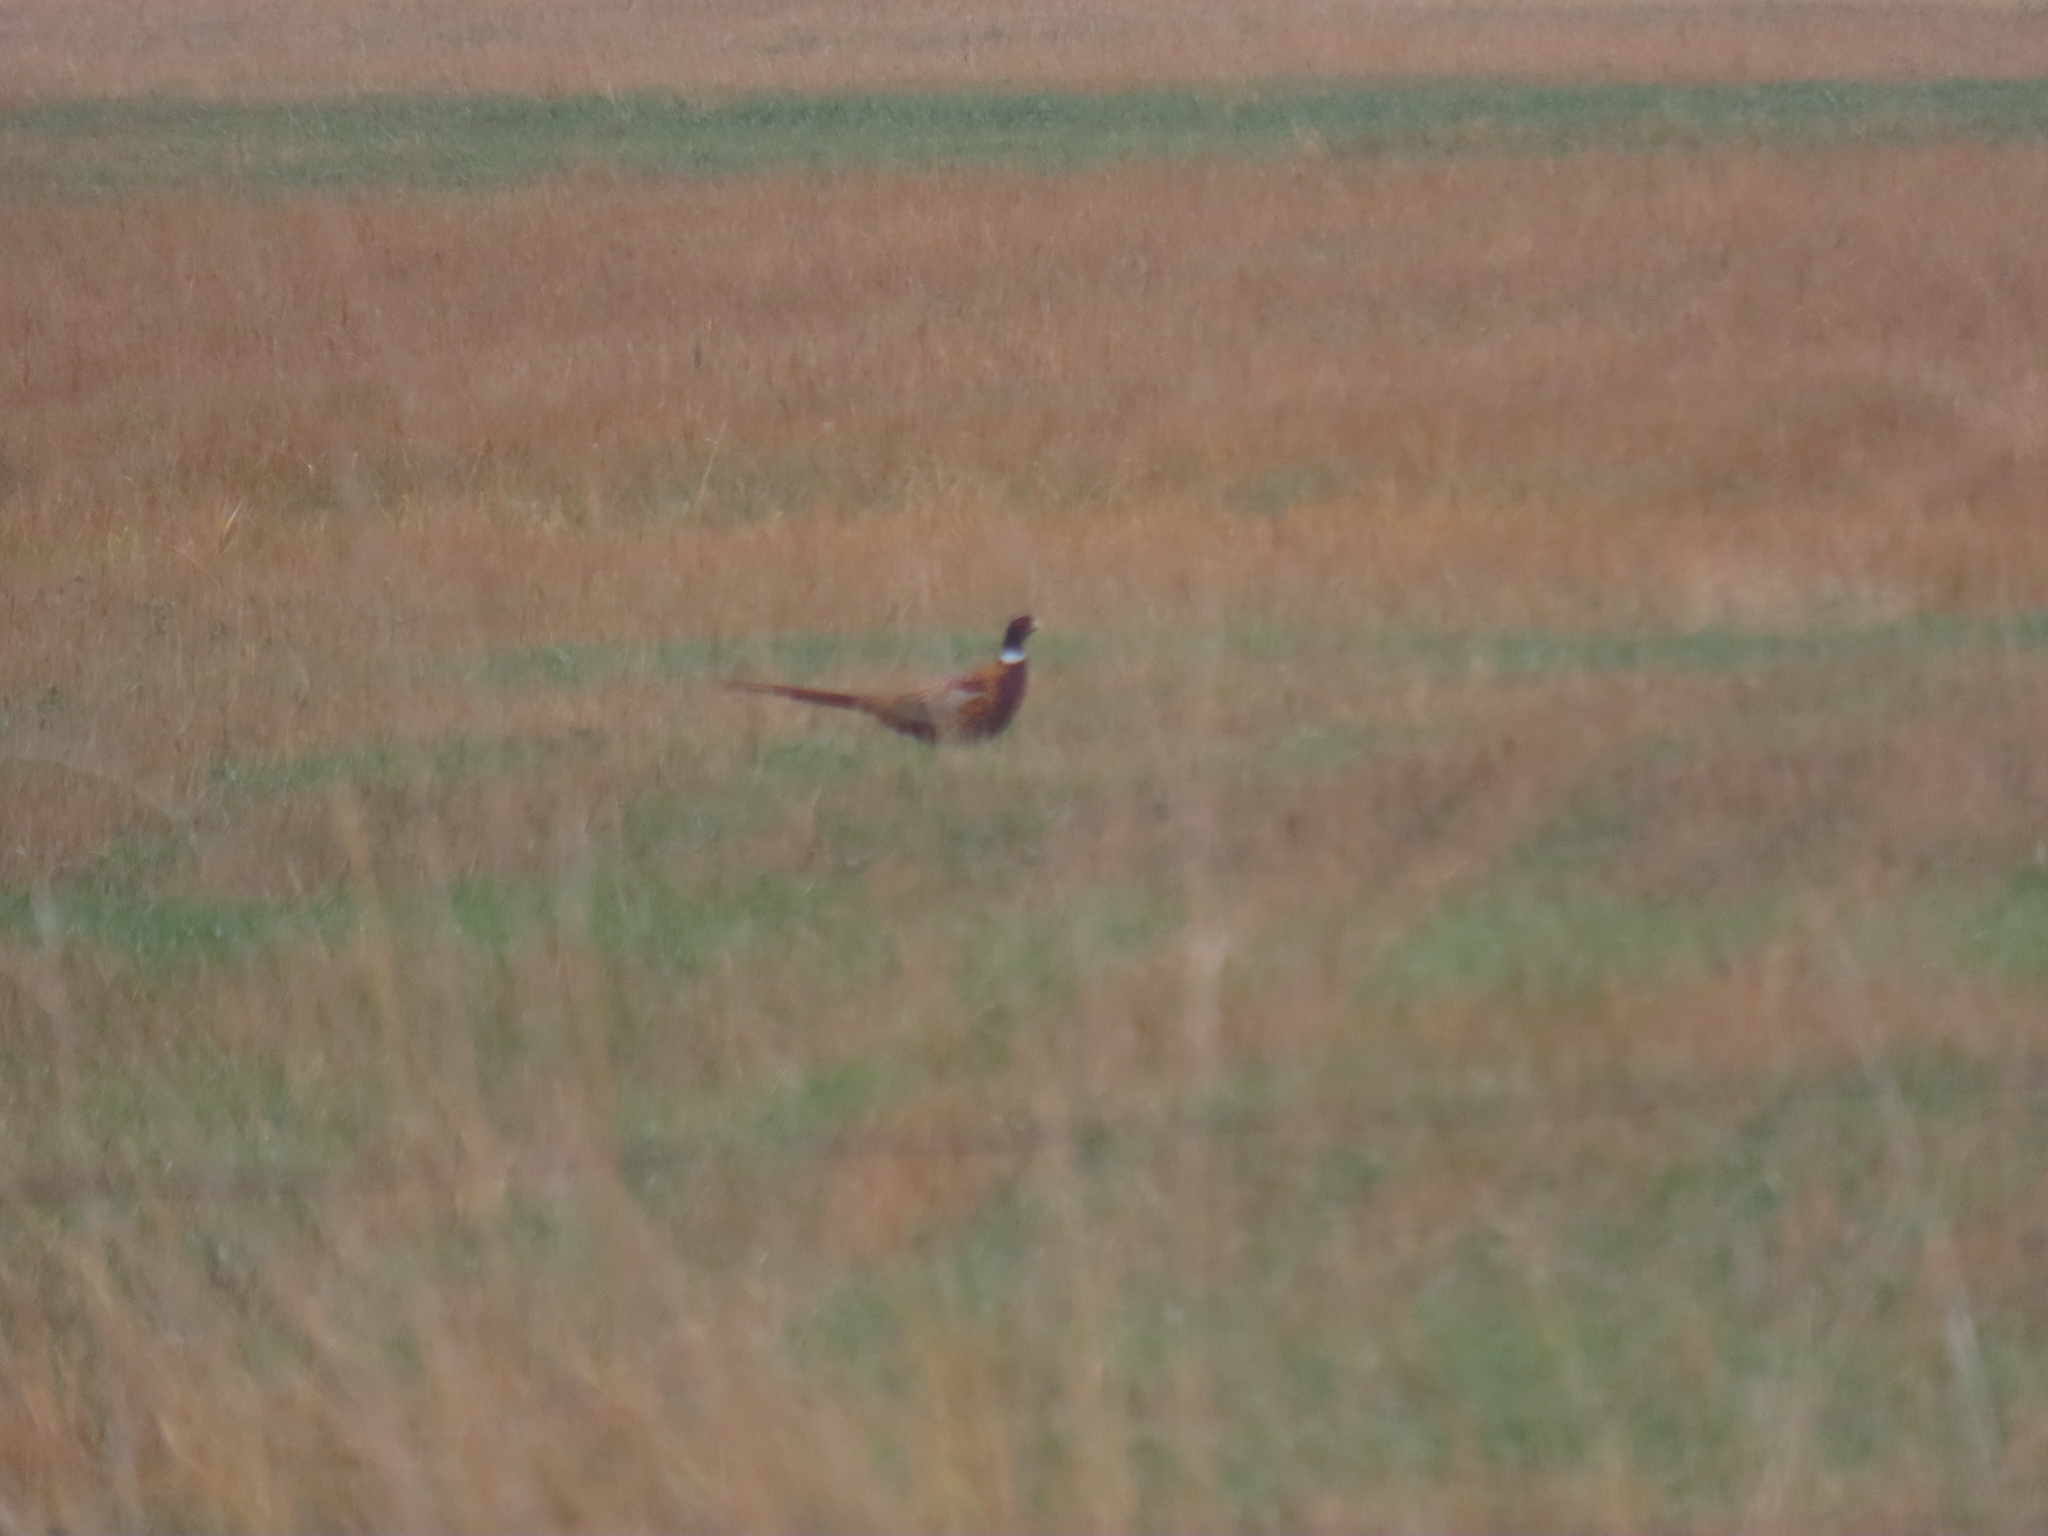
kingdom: Animalia
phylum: Chordata
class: Aves
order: Galliformes
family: Phasianidae
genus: Phasianus
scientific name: Phasianus colchicus
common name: Common pheasant
